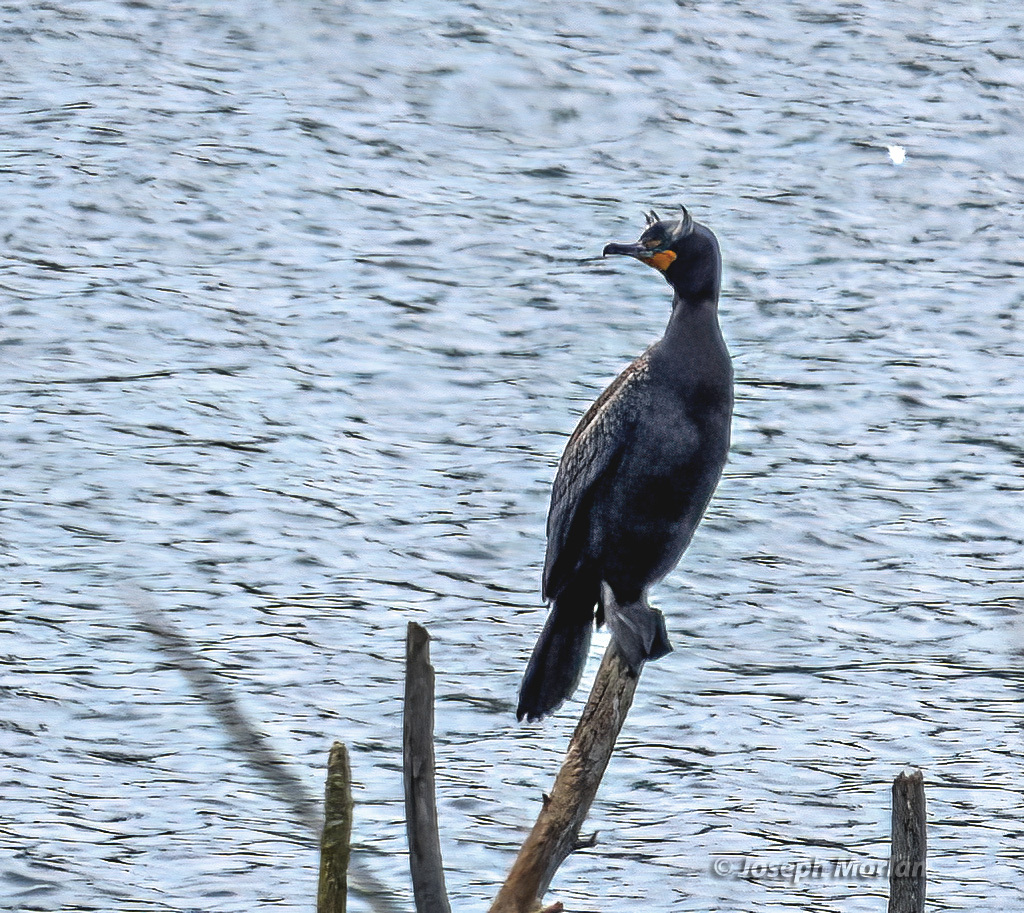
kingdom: Animalia
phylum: Chordata
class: Aves
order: Suliformes
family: Phalacrocoracidae
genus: Phalacrocorax
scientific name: Phalacrocorax auritus
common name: Double-crested cormorant
